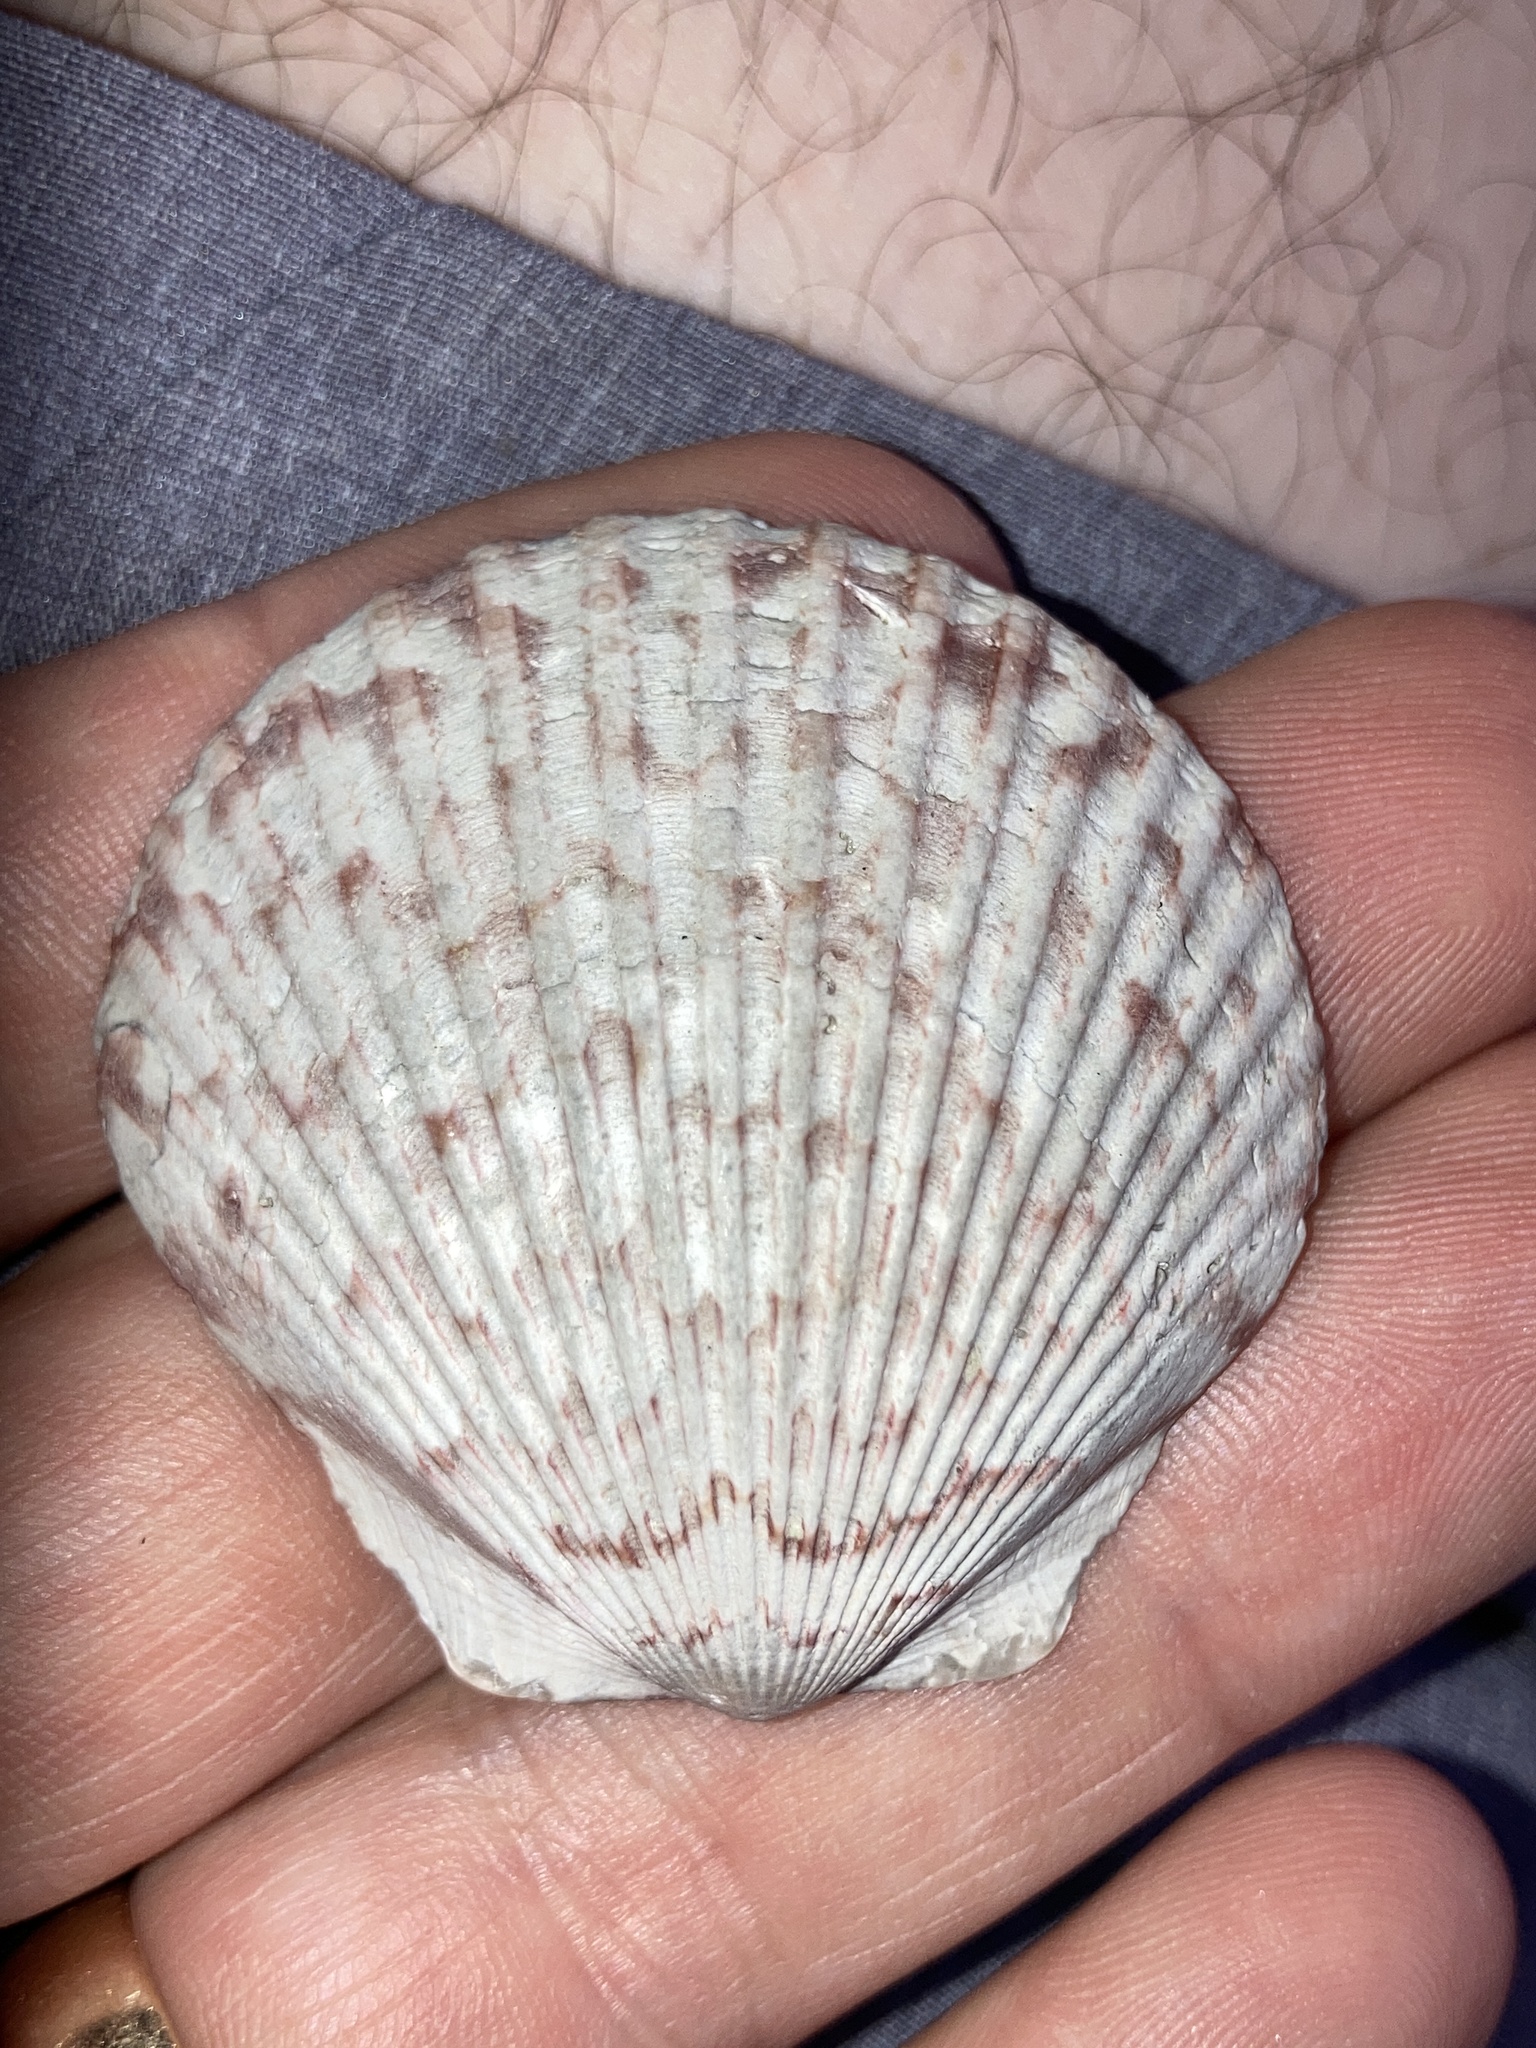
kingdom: Animalia
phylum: Mollusca
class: Bivalvia
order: Pectinida
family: Pectinidae
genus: Argopecten
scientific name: Argopecten gibbus
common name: Atlantic calico scallop
